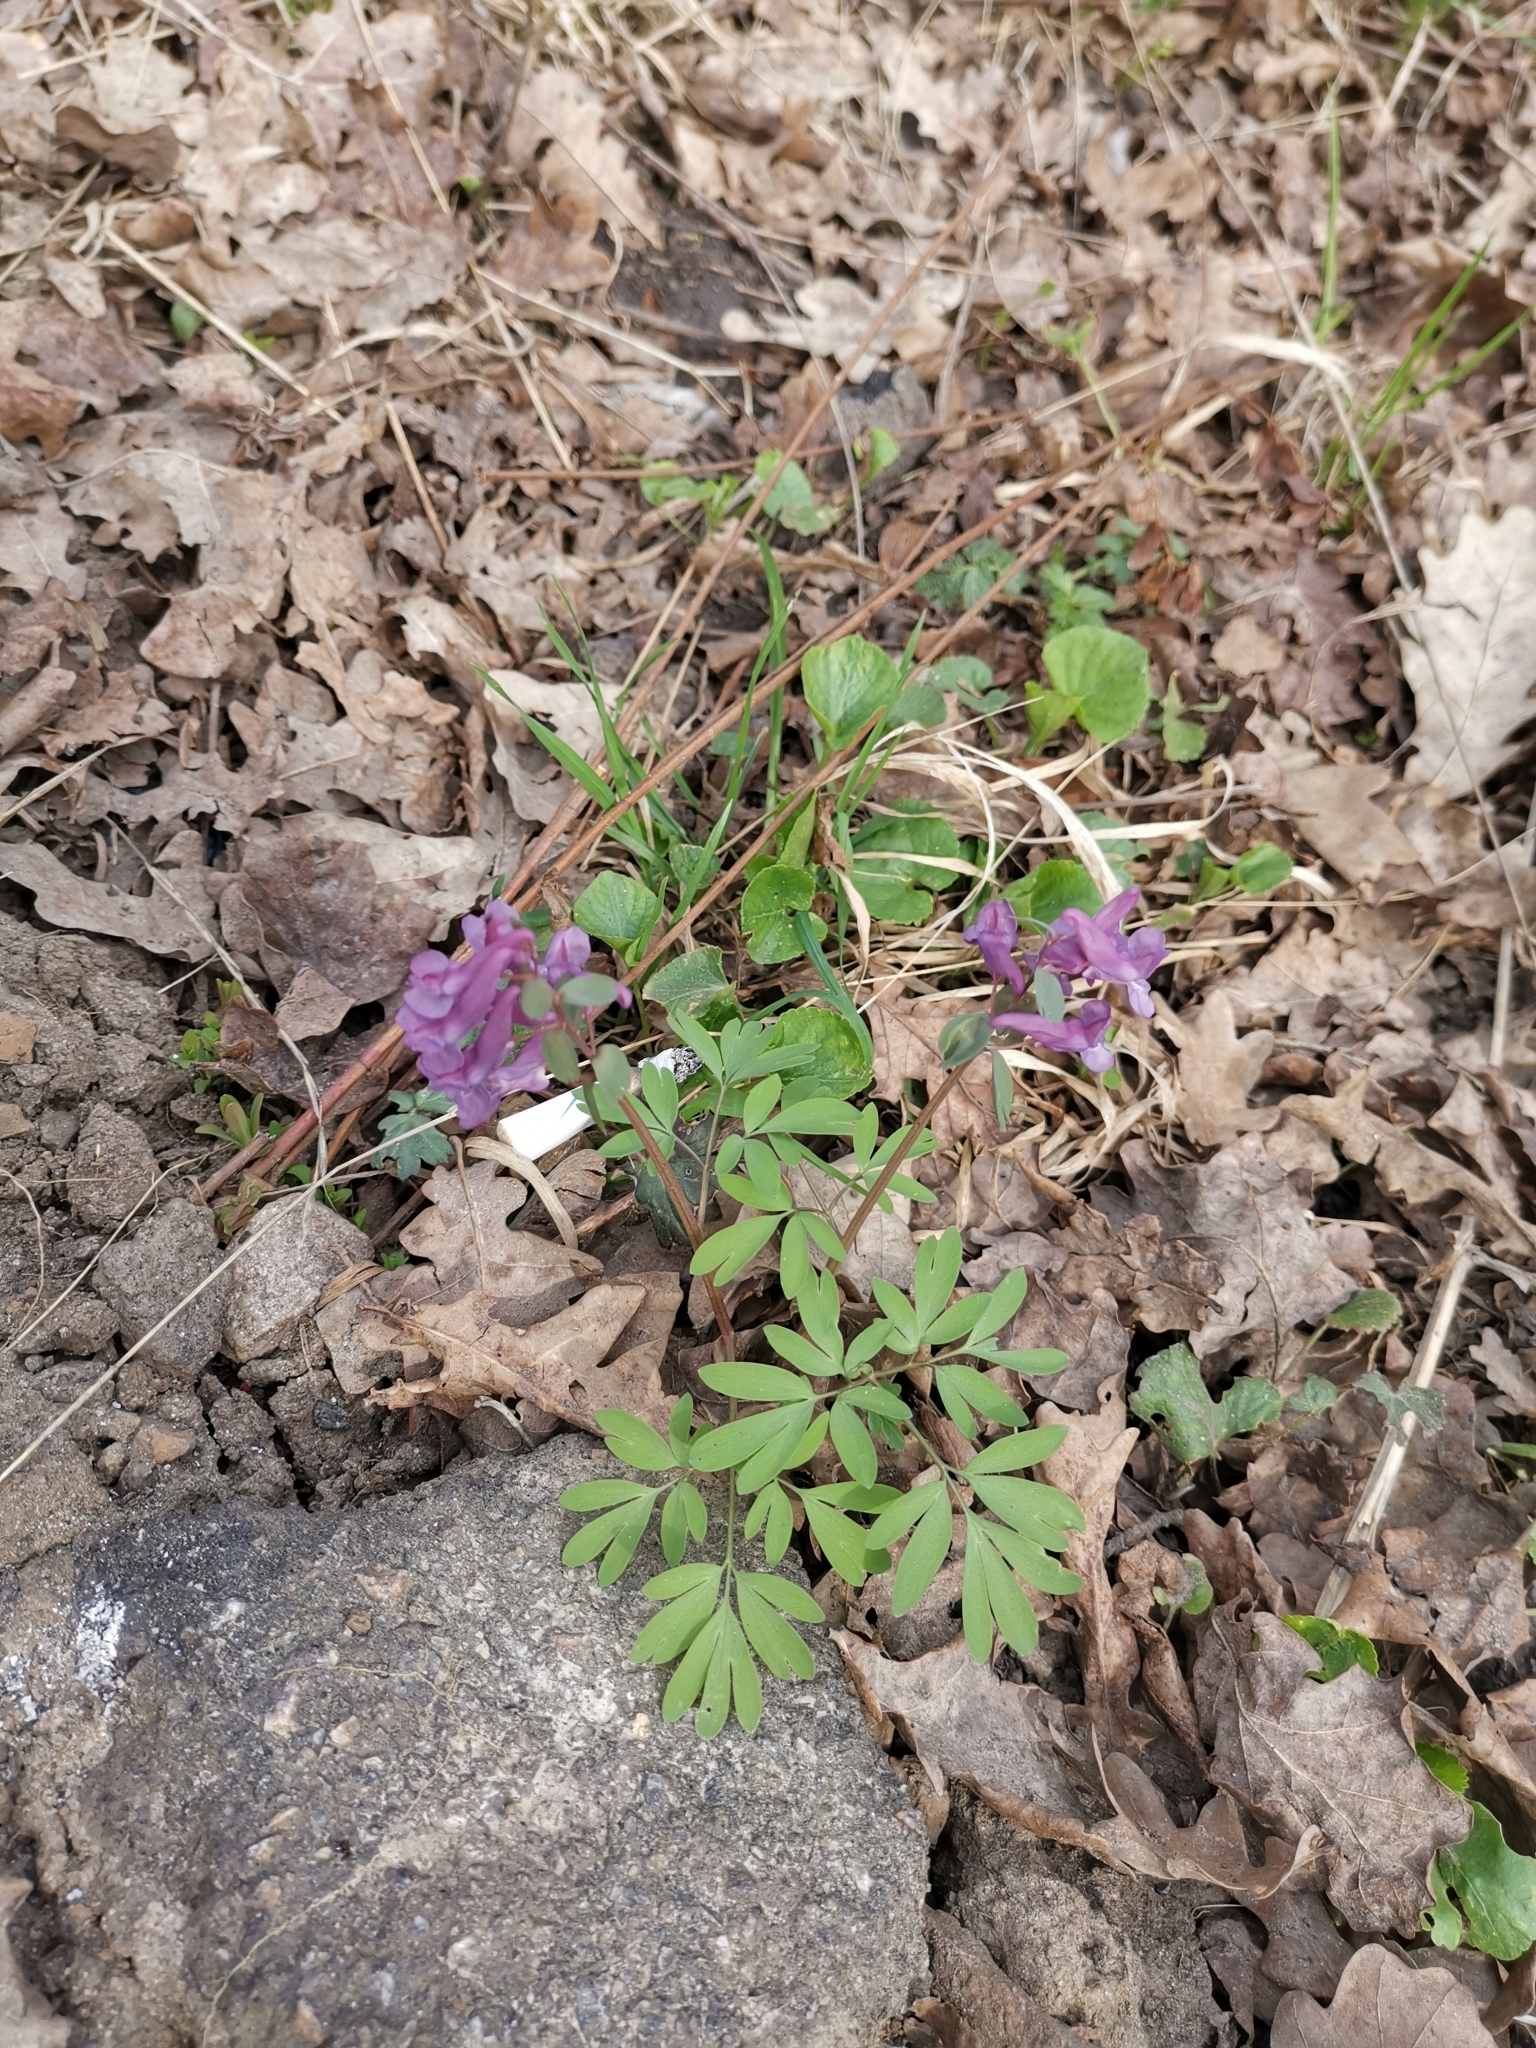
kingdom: Plantae
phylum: Tracheophyta
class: Magnoliopsida
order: Ranunculales
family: Papaveraceae
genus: Corydalis
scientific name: Corydalis solida
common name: Bird-in-a-bush
